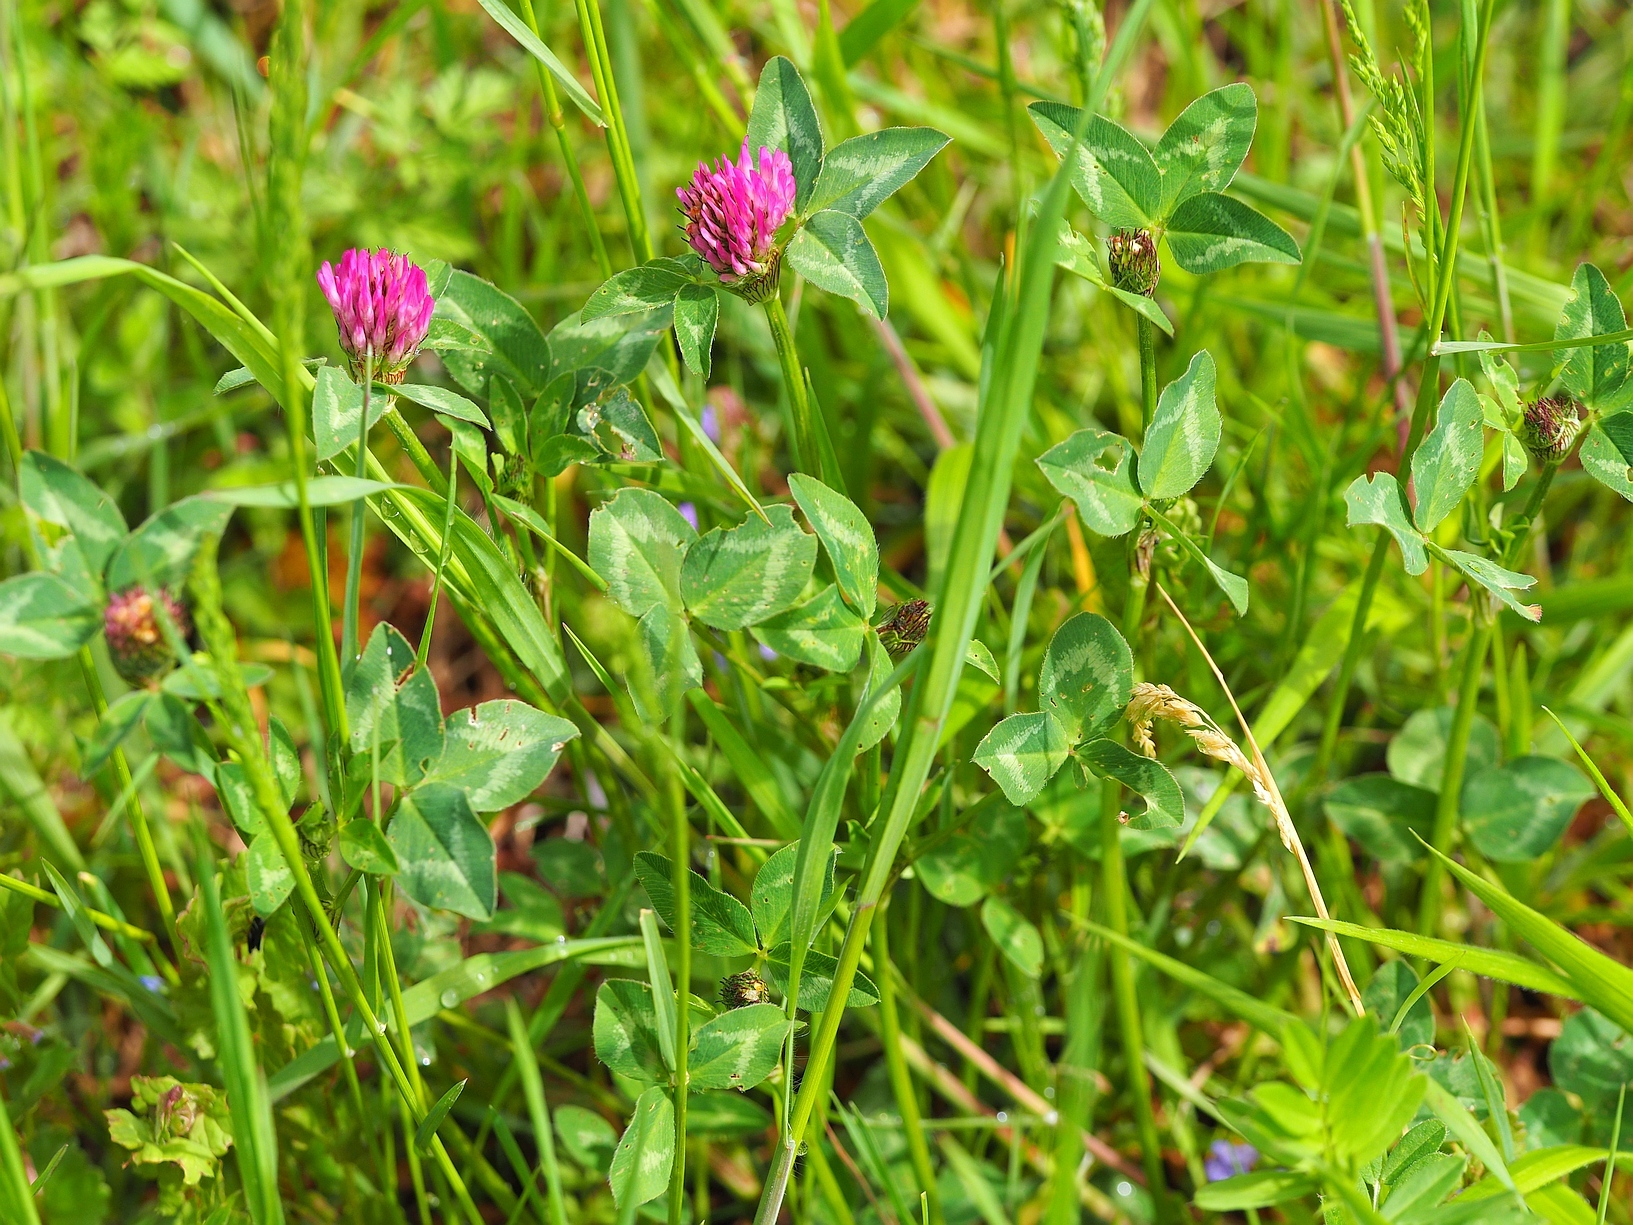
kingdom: Plantae
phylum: Tracheophyta
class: Magnoliopsida
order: Fabales
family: Fabaceae
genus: Trifolium
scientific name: Trifolium pratense
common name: Red clover
